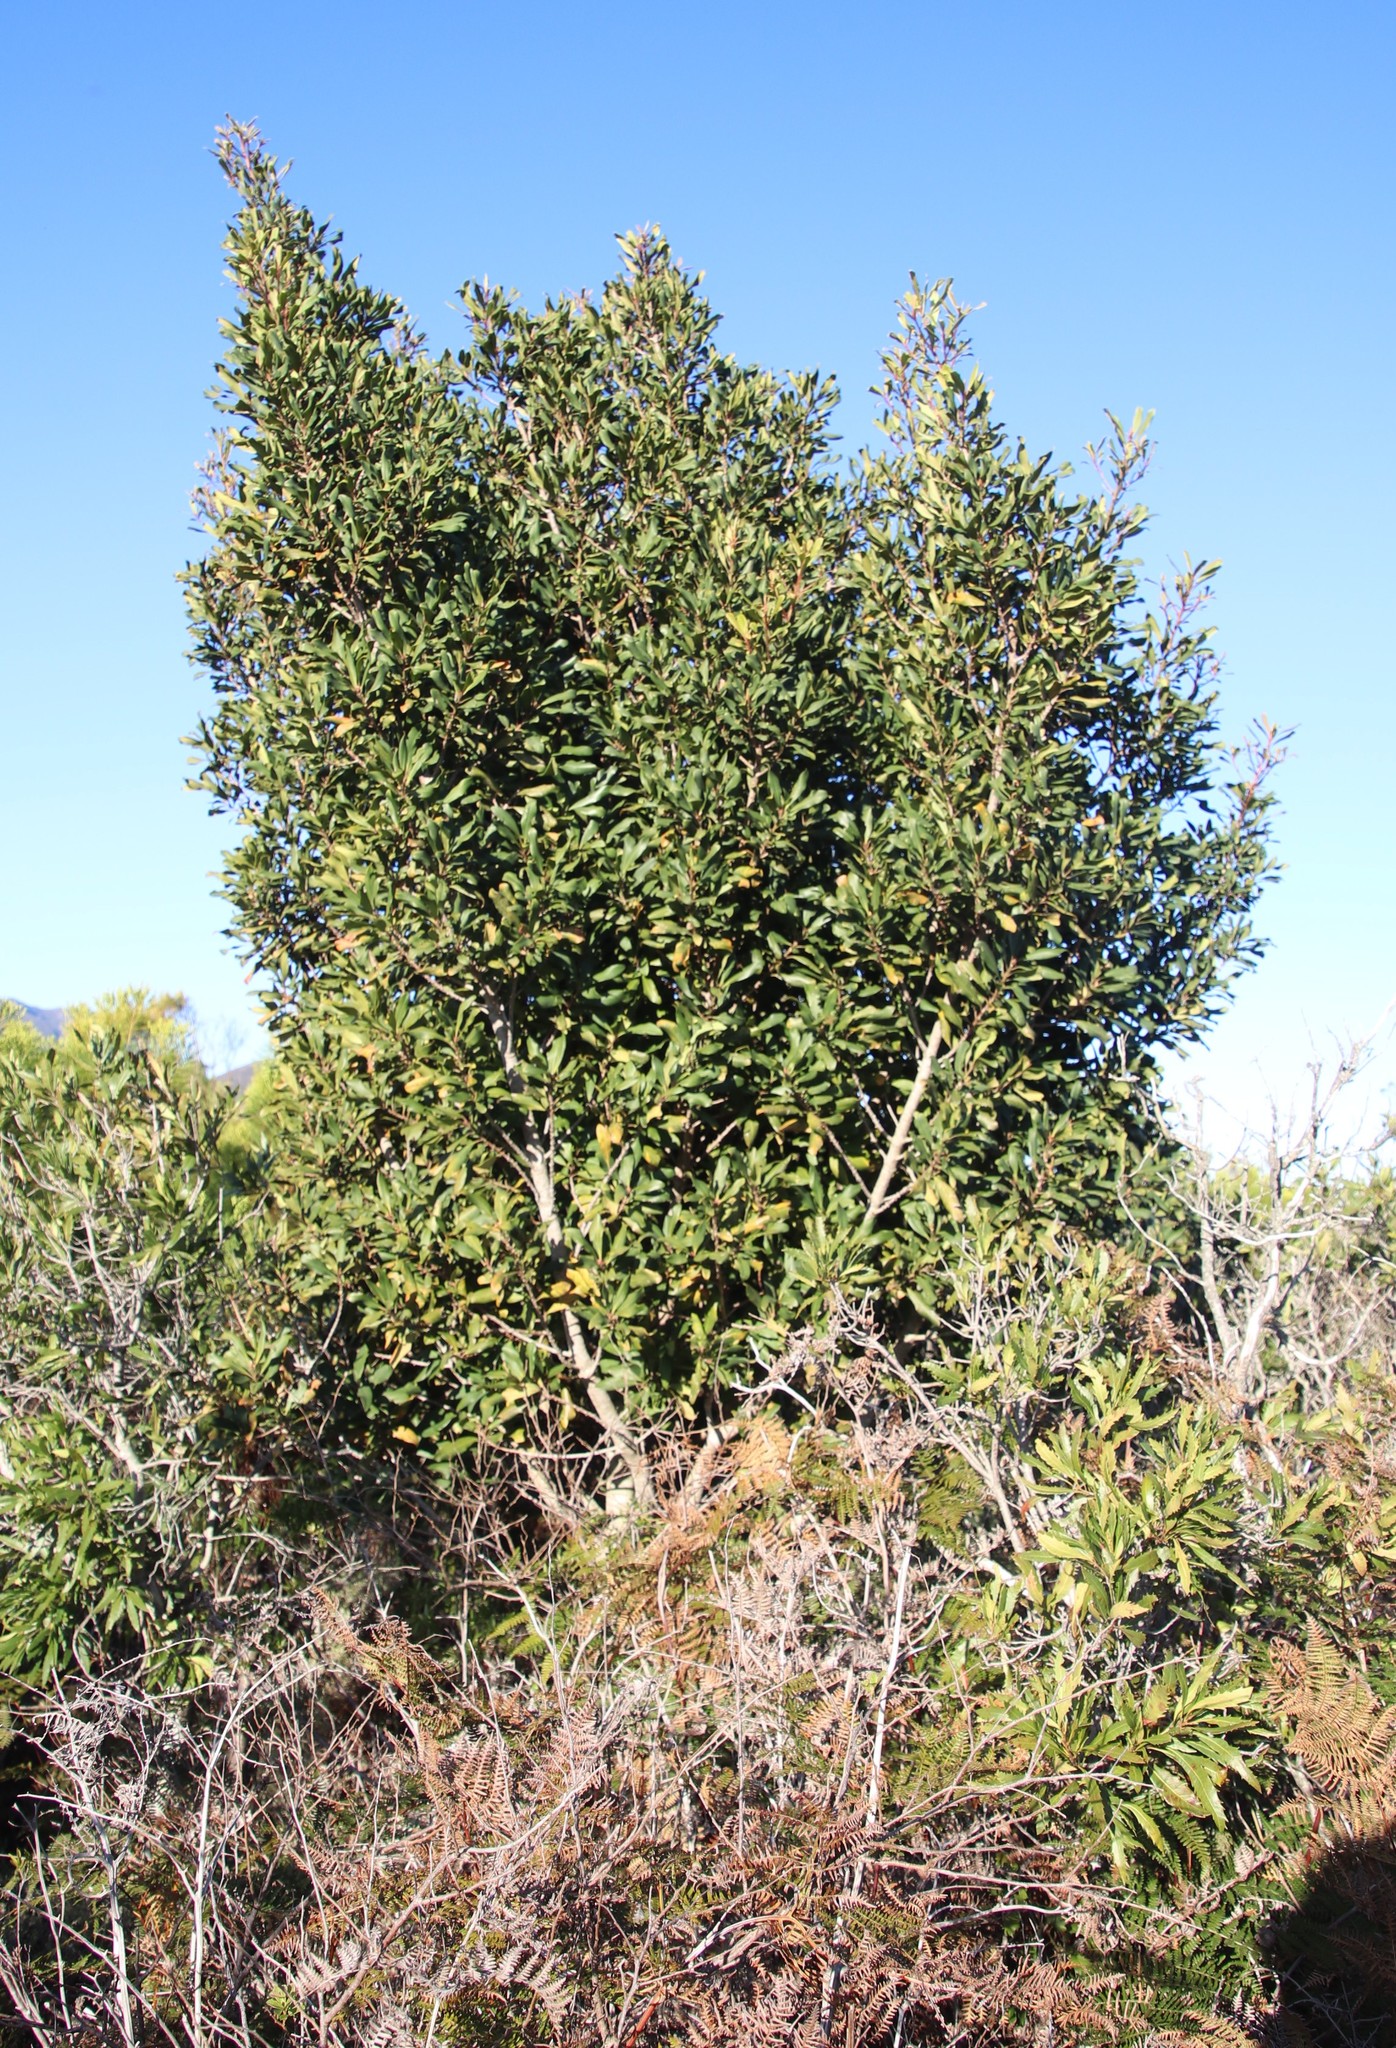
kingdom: Plantae
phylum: Tracheophyta
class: Magnoliopsida
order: Ericales
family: Primulaceae
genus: Myrsine
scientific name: Myrsine melanophloeos
